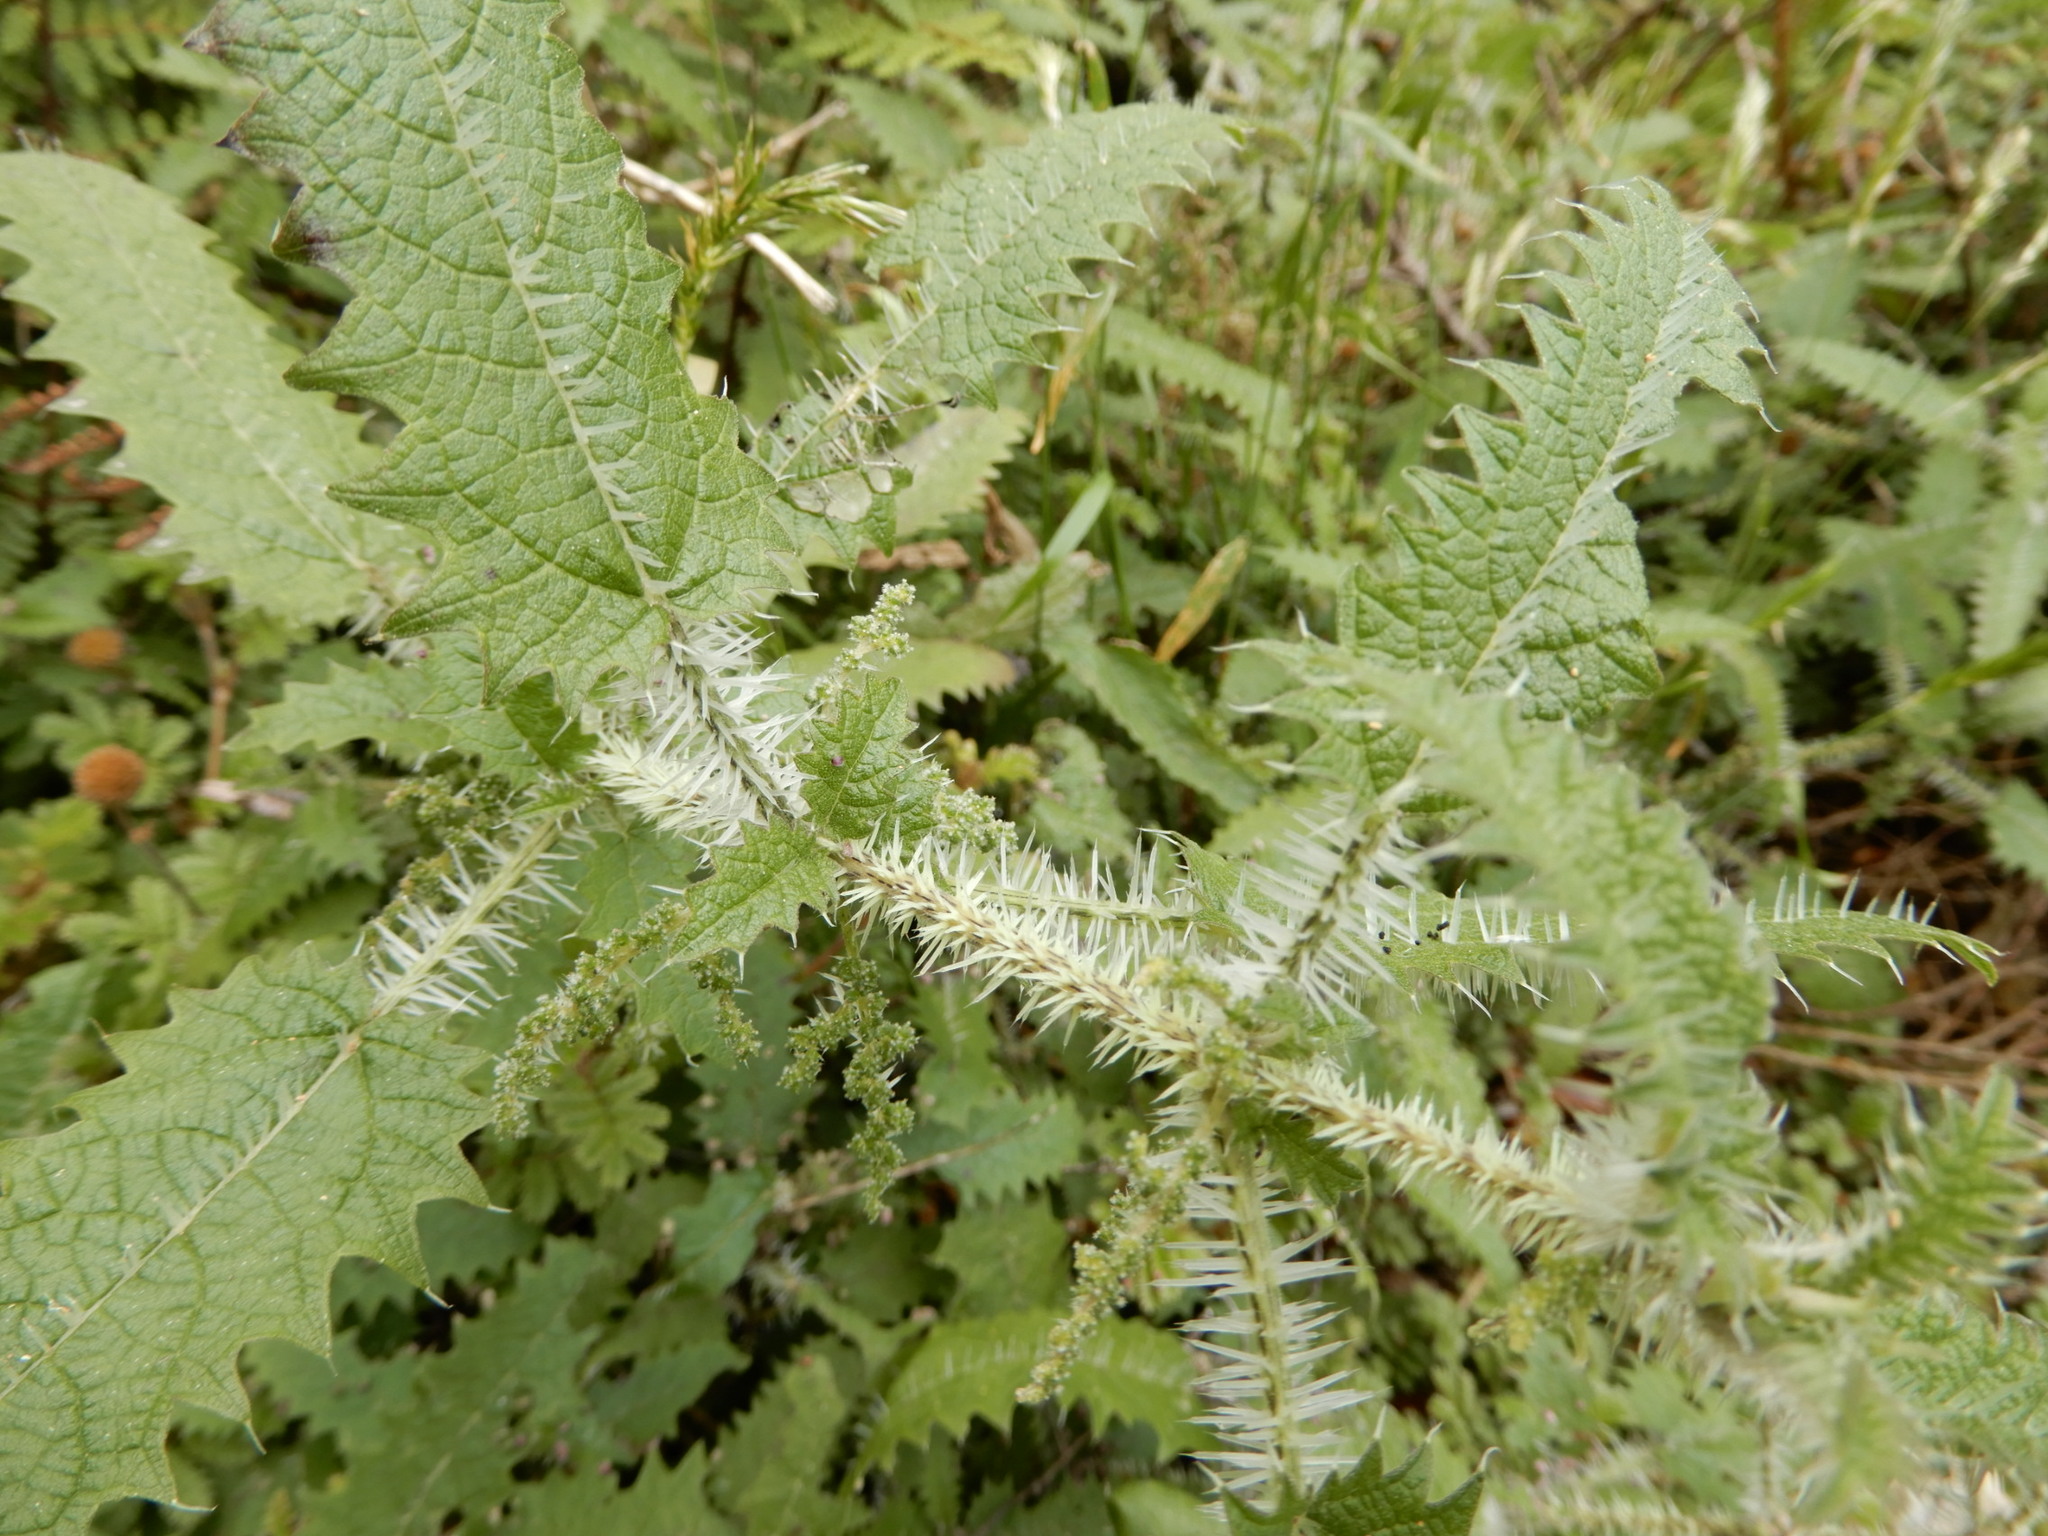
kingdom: Plantae
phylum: Tracheophyta
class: Magnoliopsida
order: Rosales
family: Urticaceae
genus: Urtica
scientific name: Urtica ferox
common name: Tree nettle
